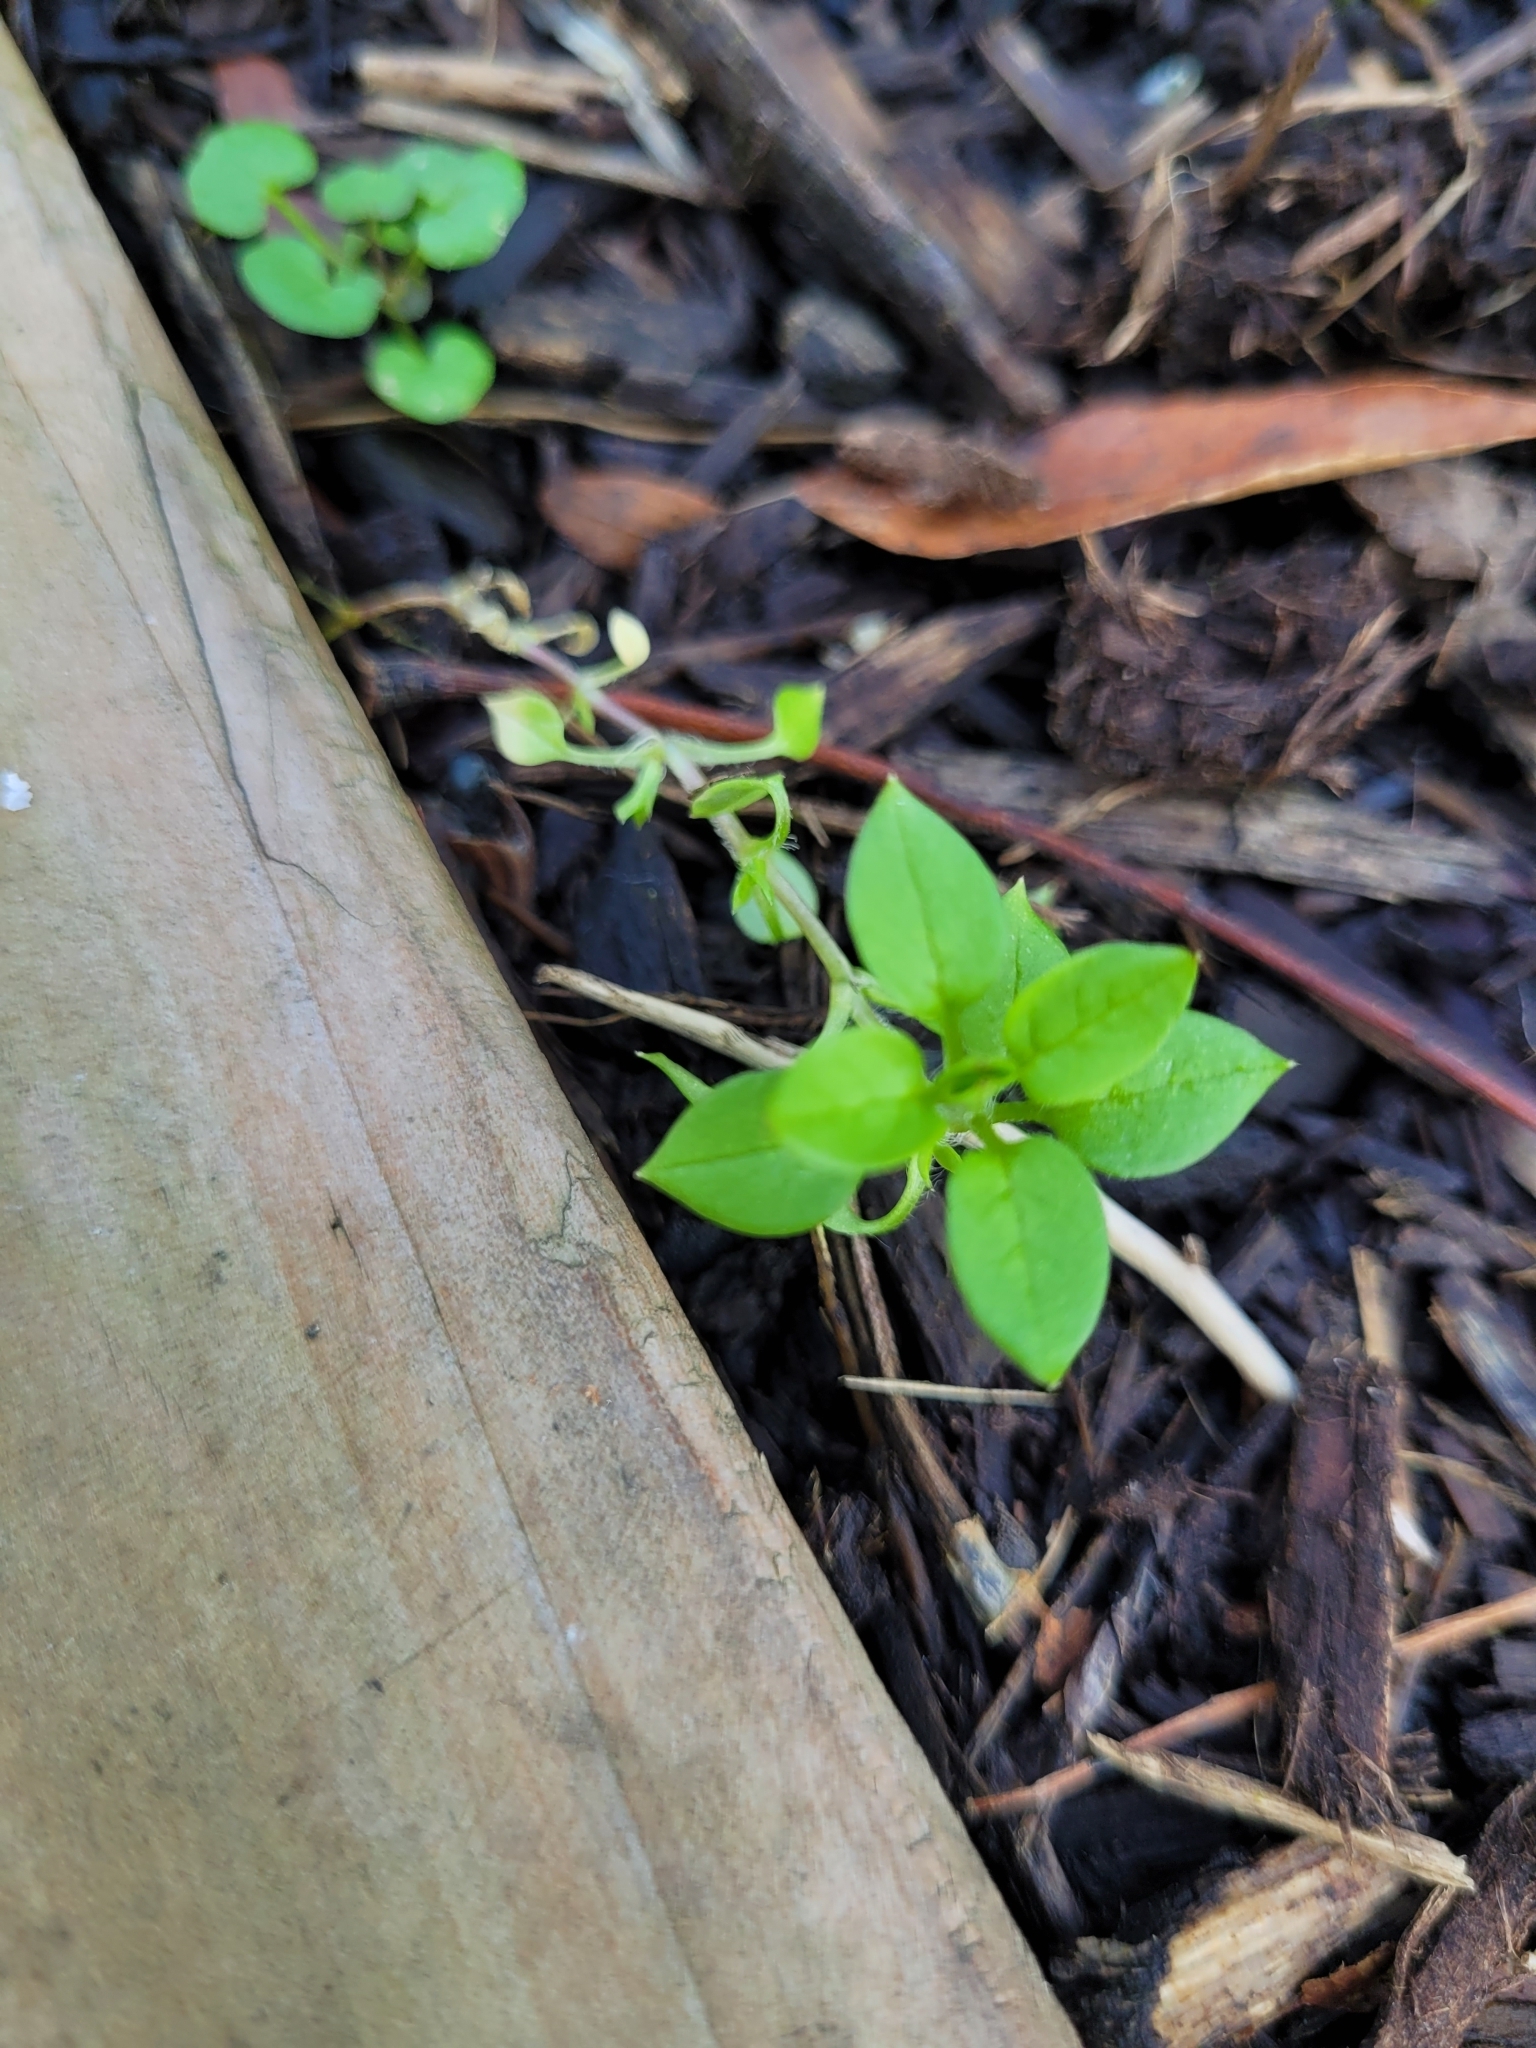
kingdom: Plantae
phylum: Tracheophyta
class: Magnoliopsida
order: Caryophyllales
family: Caryophyllaceae
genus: Stellaria
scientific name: Stellaria media
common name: Common chickweed
